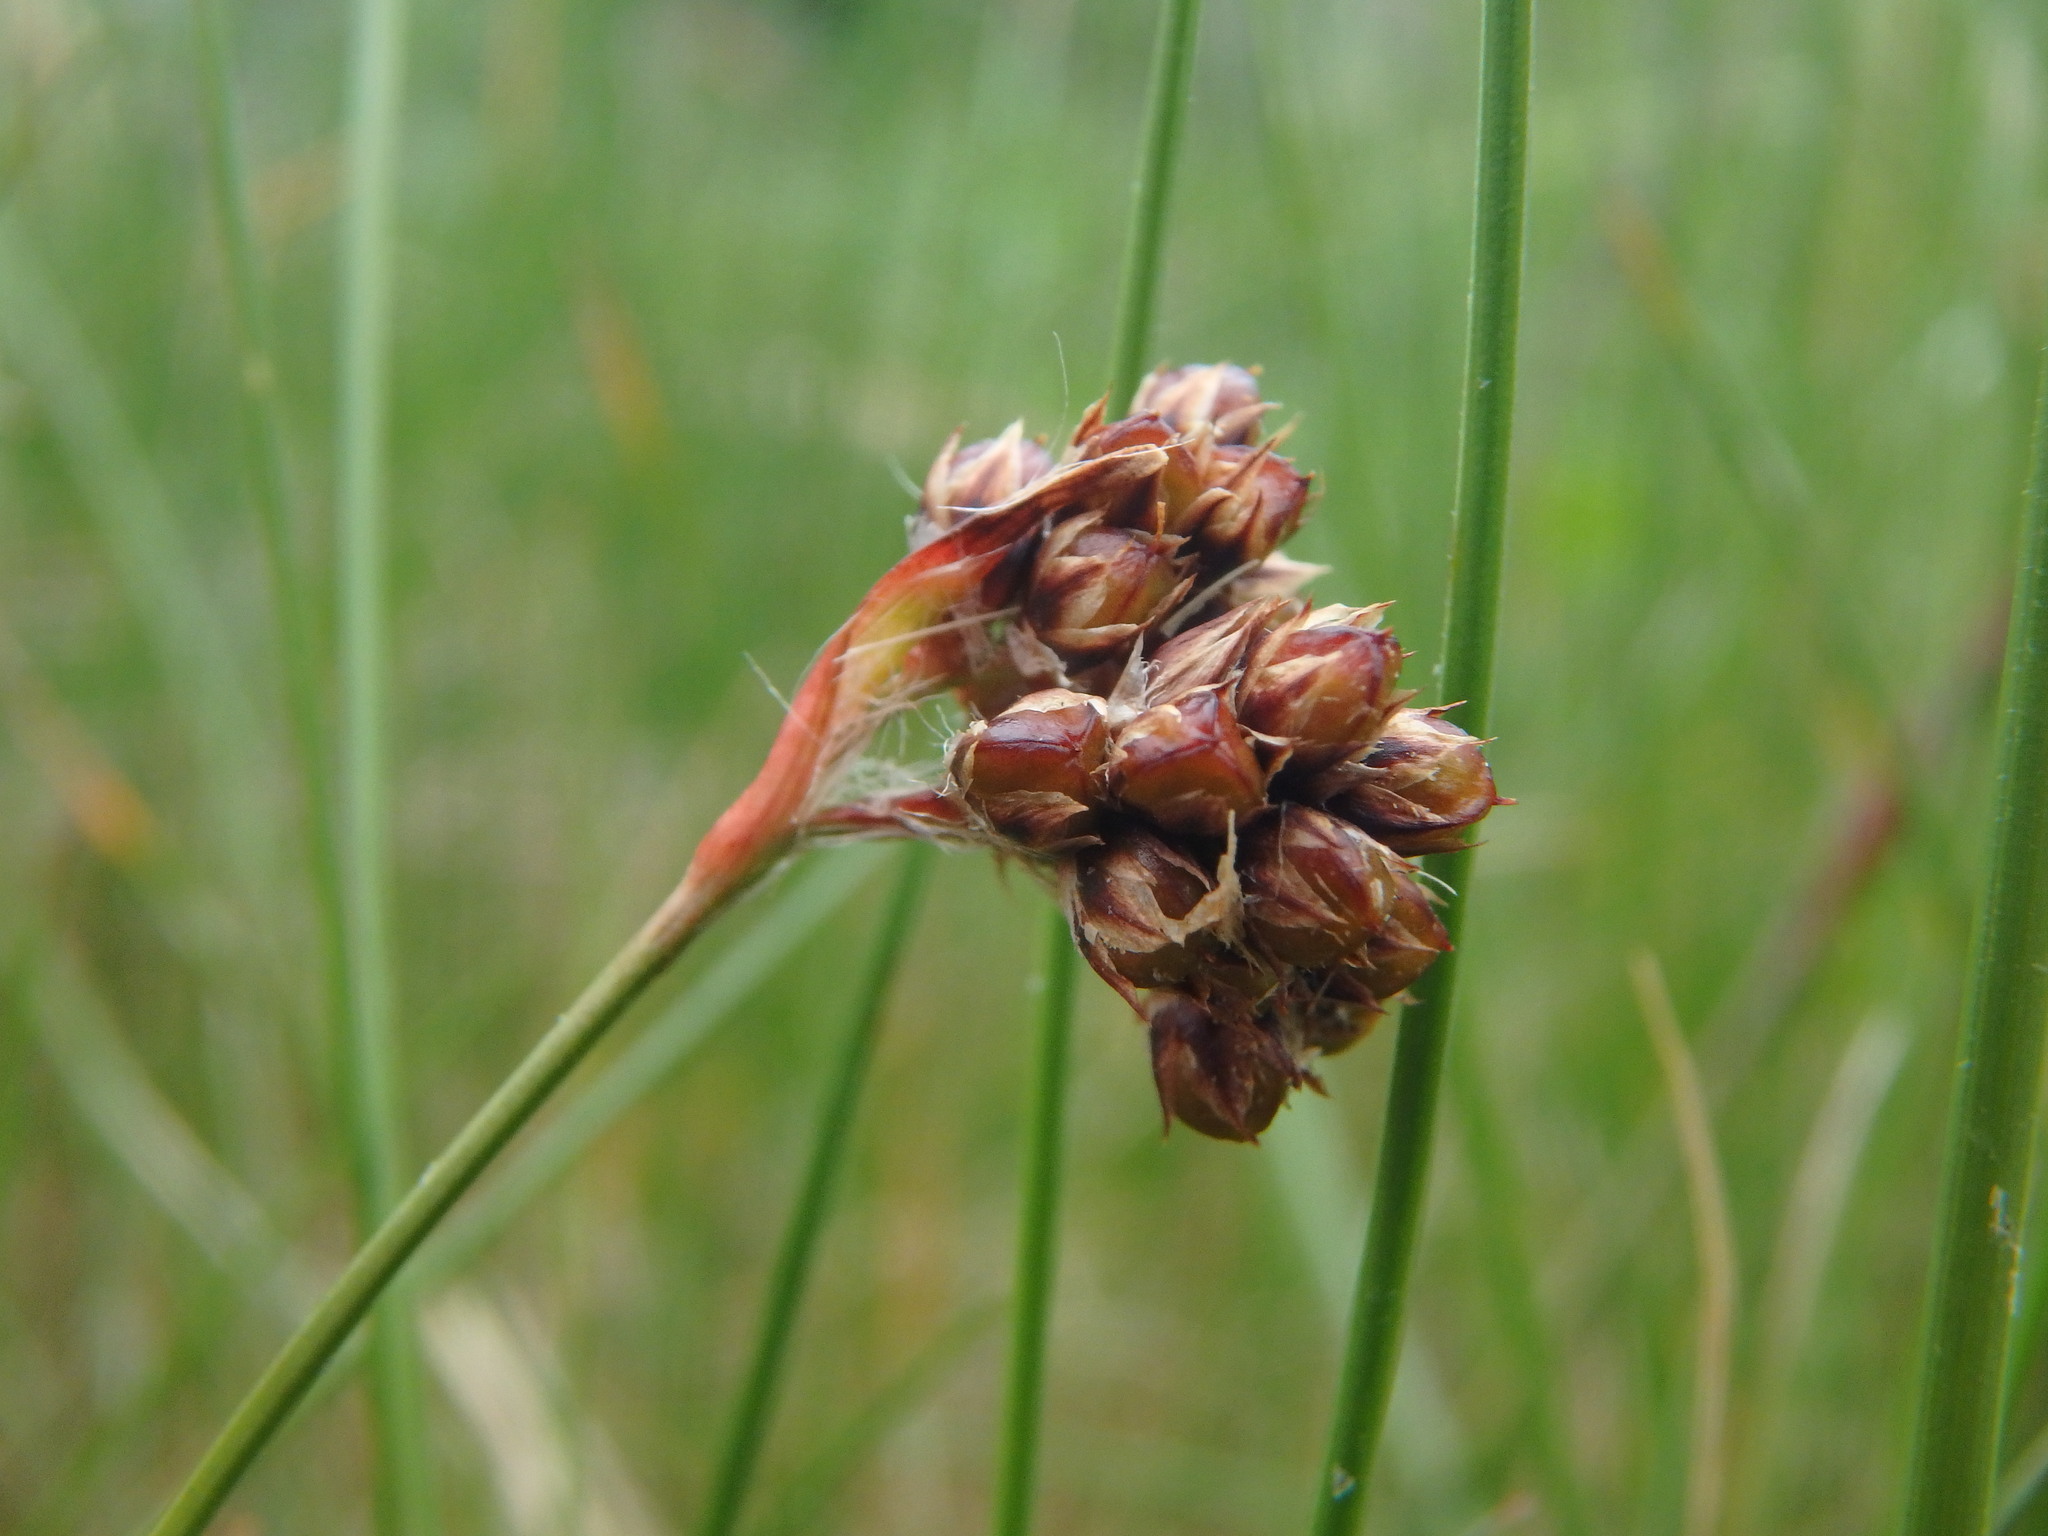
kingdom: Plantae
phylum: Tracheophyta
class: Liliopsida
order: Poales
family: Juncaceae
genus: Luzula
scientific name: Luzula campestris
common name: Field wood-rush
